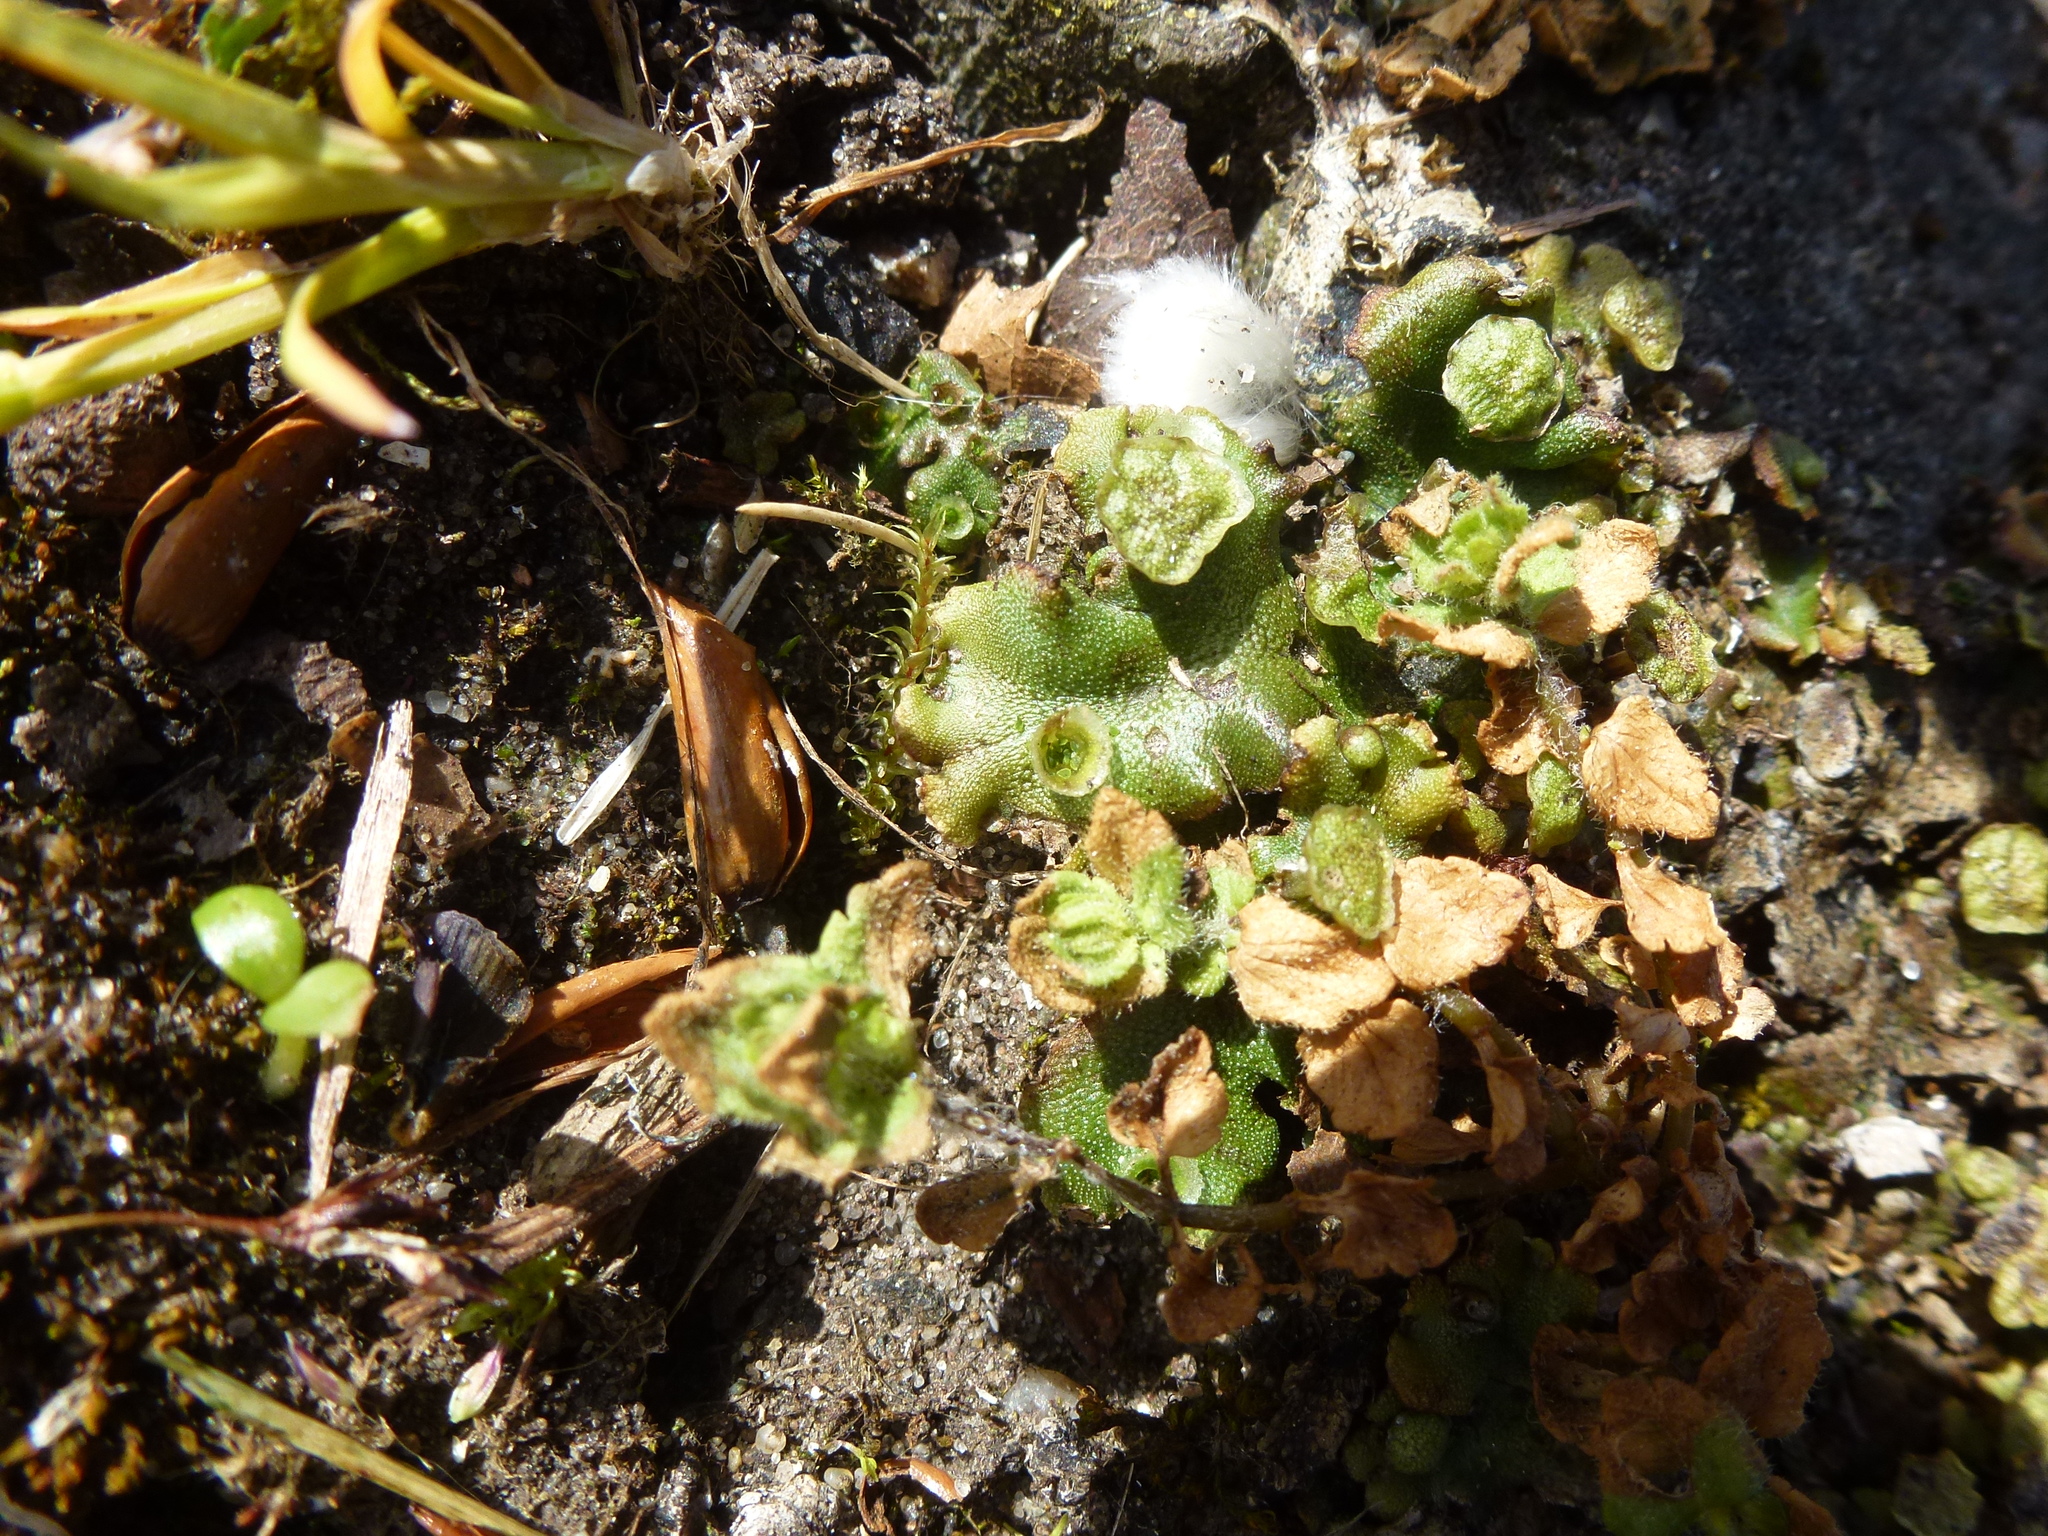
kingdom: Plantae
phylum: Marchantiophyta
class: Marchantiopsida
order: Marchantiales
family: Marchantiaceae
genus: Marchantia
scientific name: Marchantia polymorpha
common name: Common liverwort
